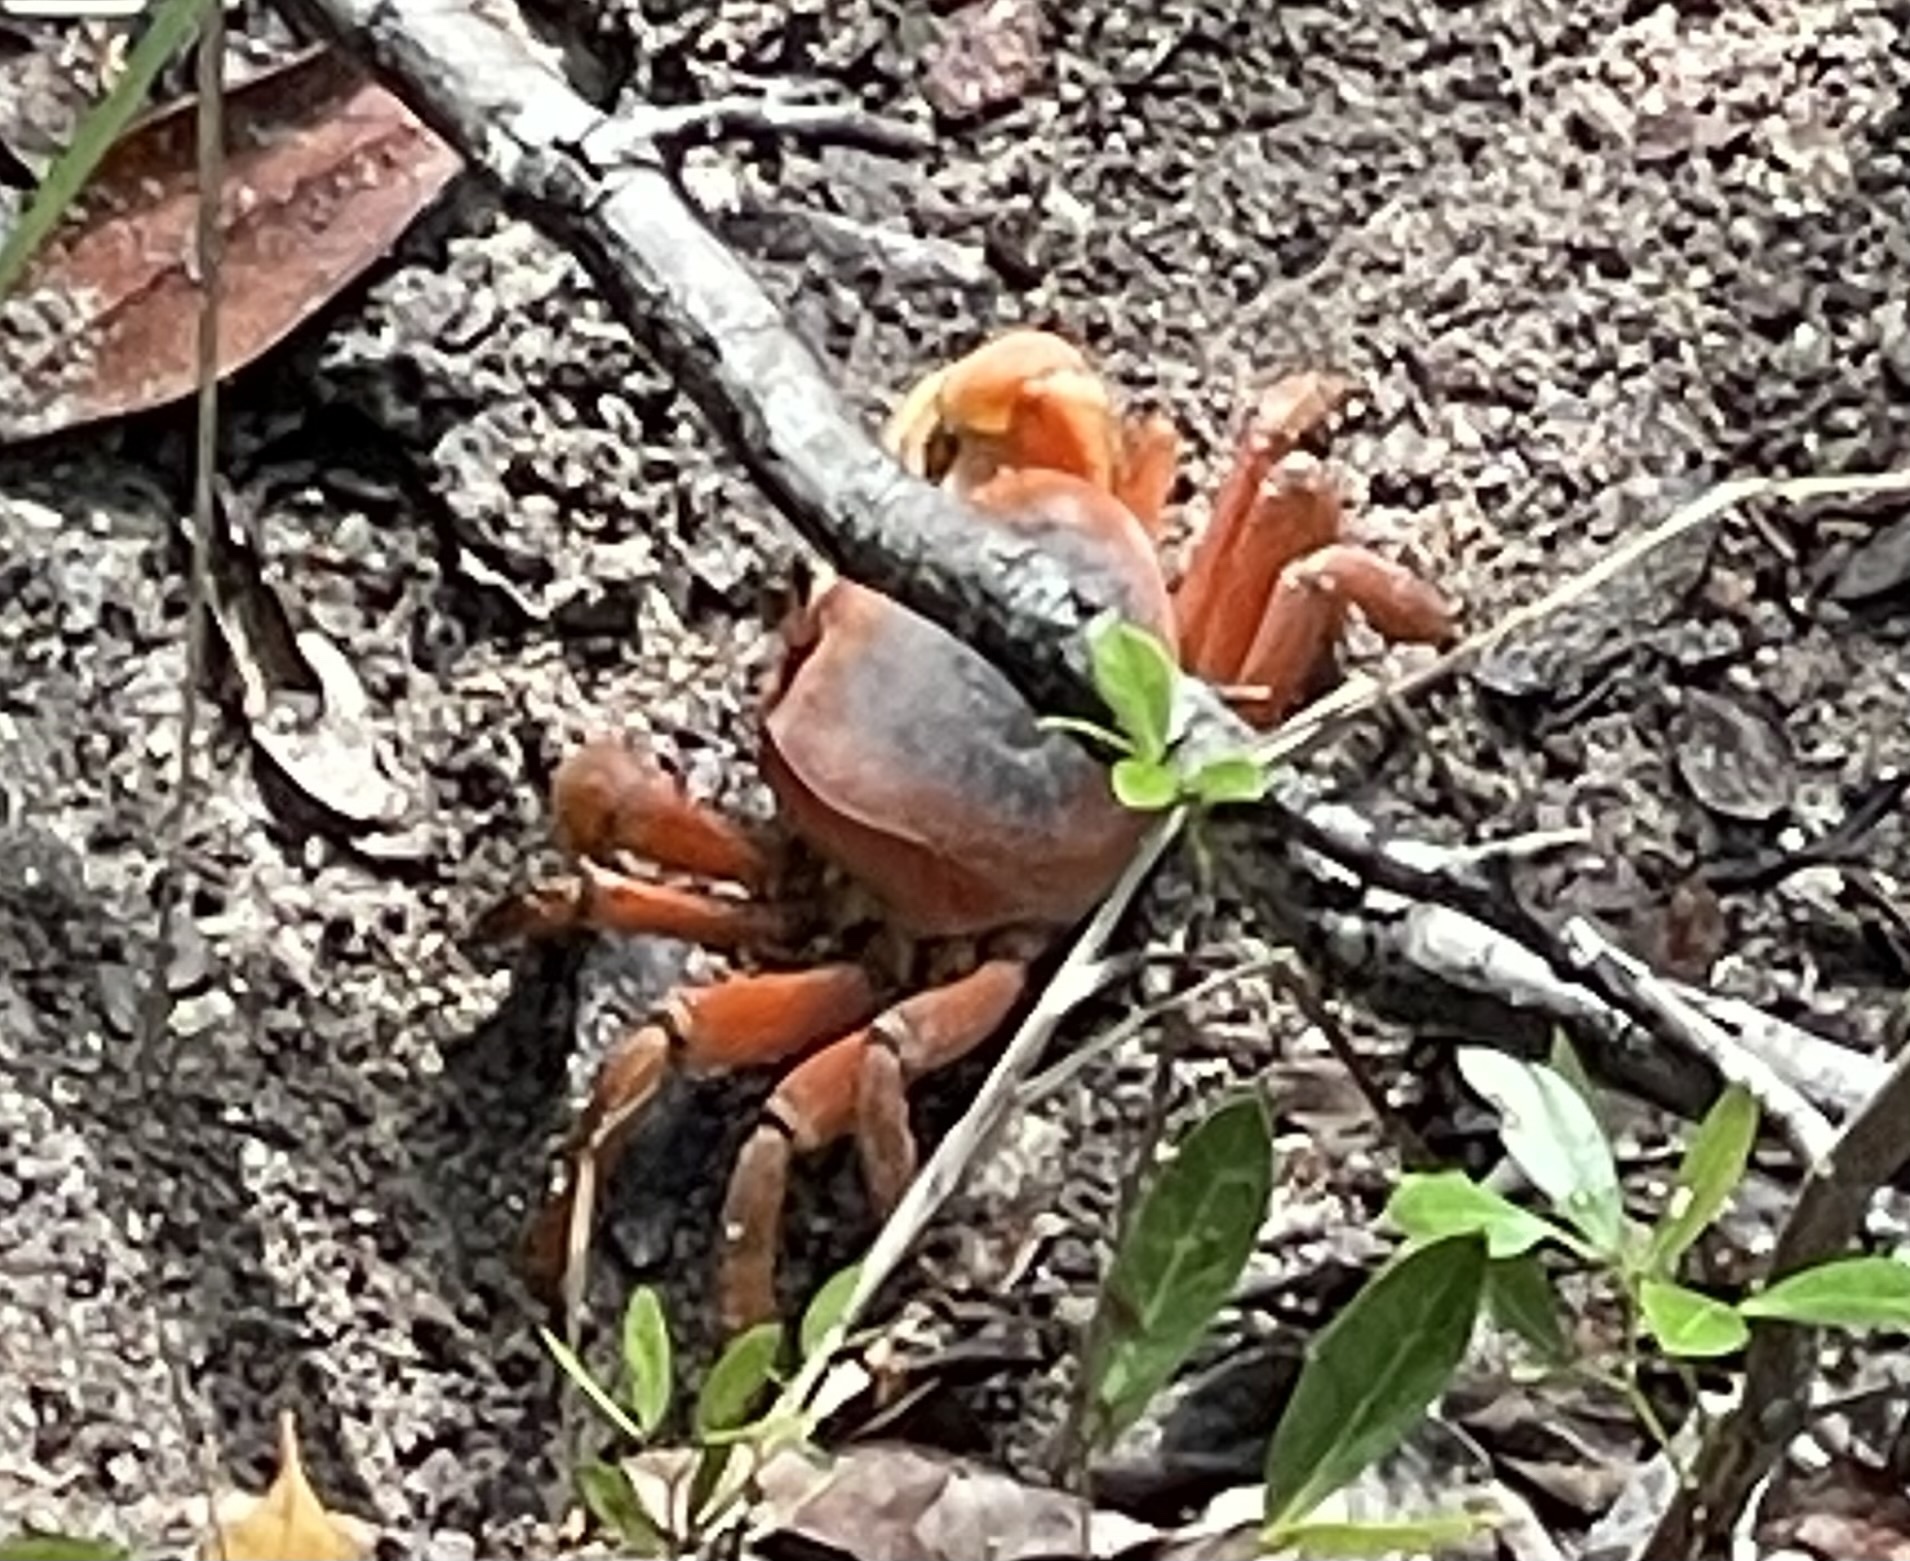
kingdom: Animalia
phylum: Arthropoda
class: Malacostraca
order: Decapoda
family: Gecarcinidae
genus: Cardisoma
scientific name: Cardisoma guanhumi
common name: Great land crab
